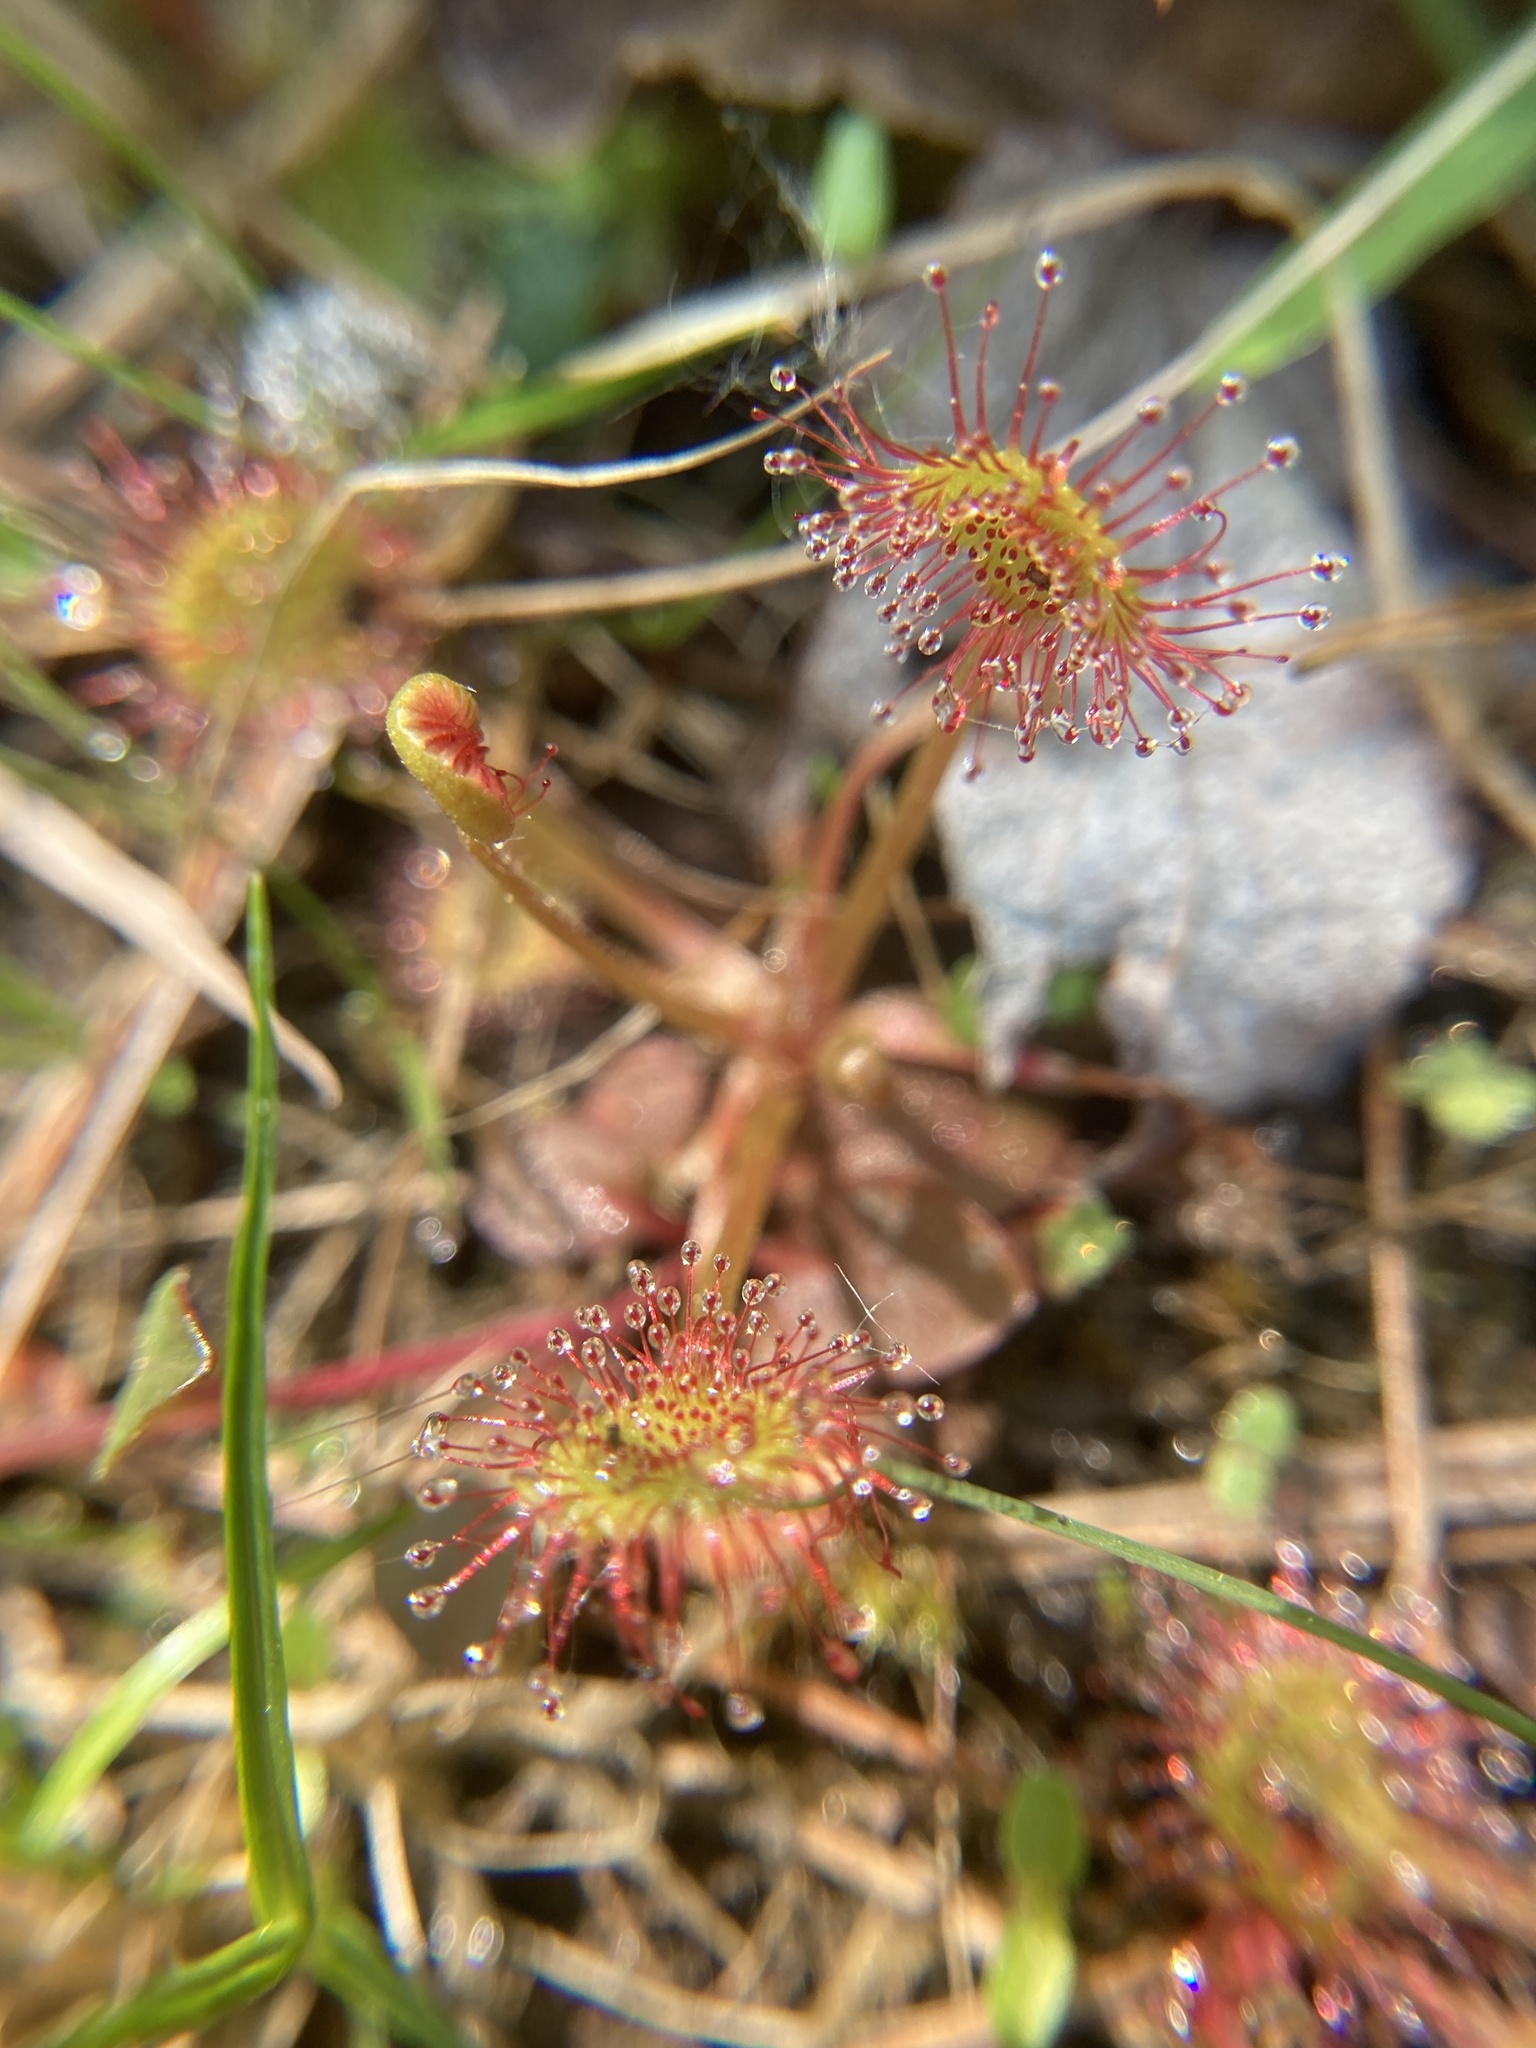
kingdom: Plantae
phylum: Tracheophyta
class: Magnoliopsida
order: Caryophyllales
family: Droseraceae
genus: Drosera
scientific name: Drosera rotundifolia
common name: Round-leaved sundew
